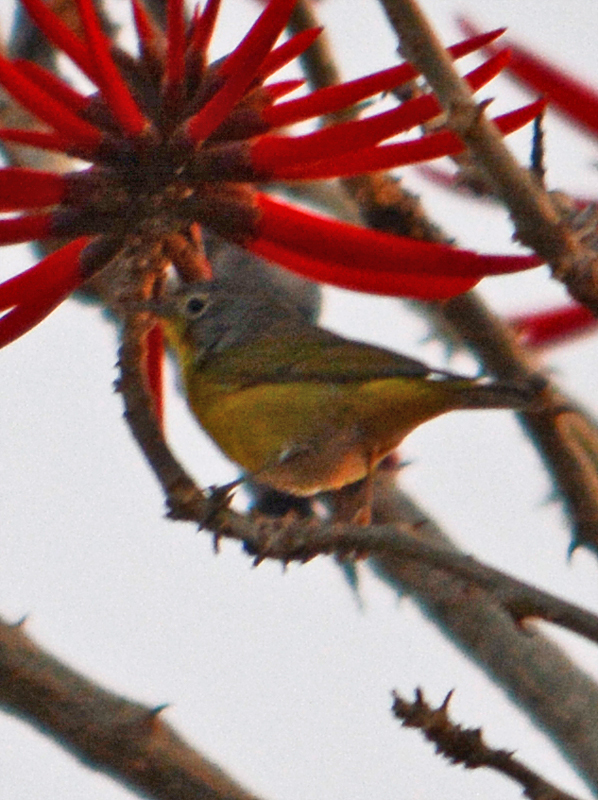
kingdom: Animalia
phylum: Chordata
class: Aves
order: Passeriformes
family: Parulidae
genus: Leiothlypis
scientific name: Leiothlypis ruficapilla
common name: Nashville warbler
